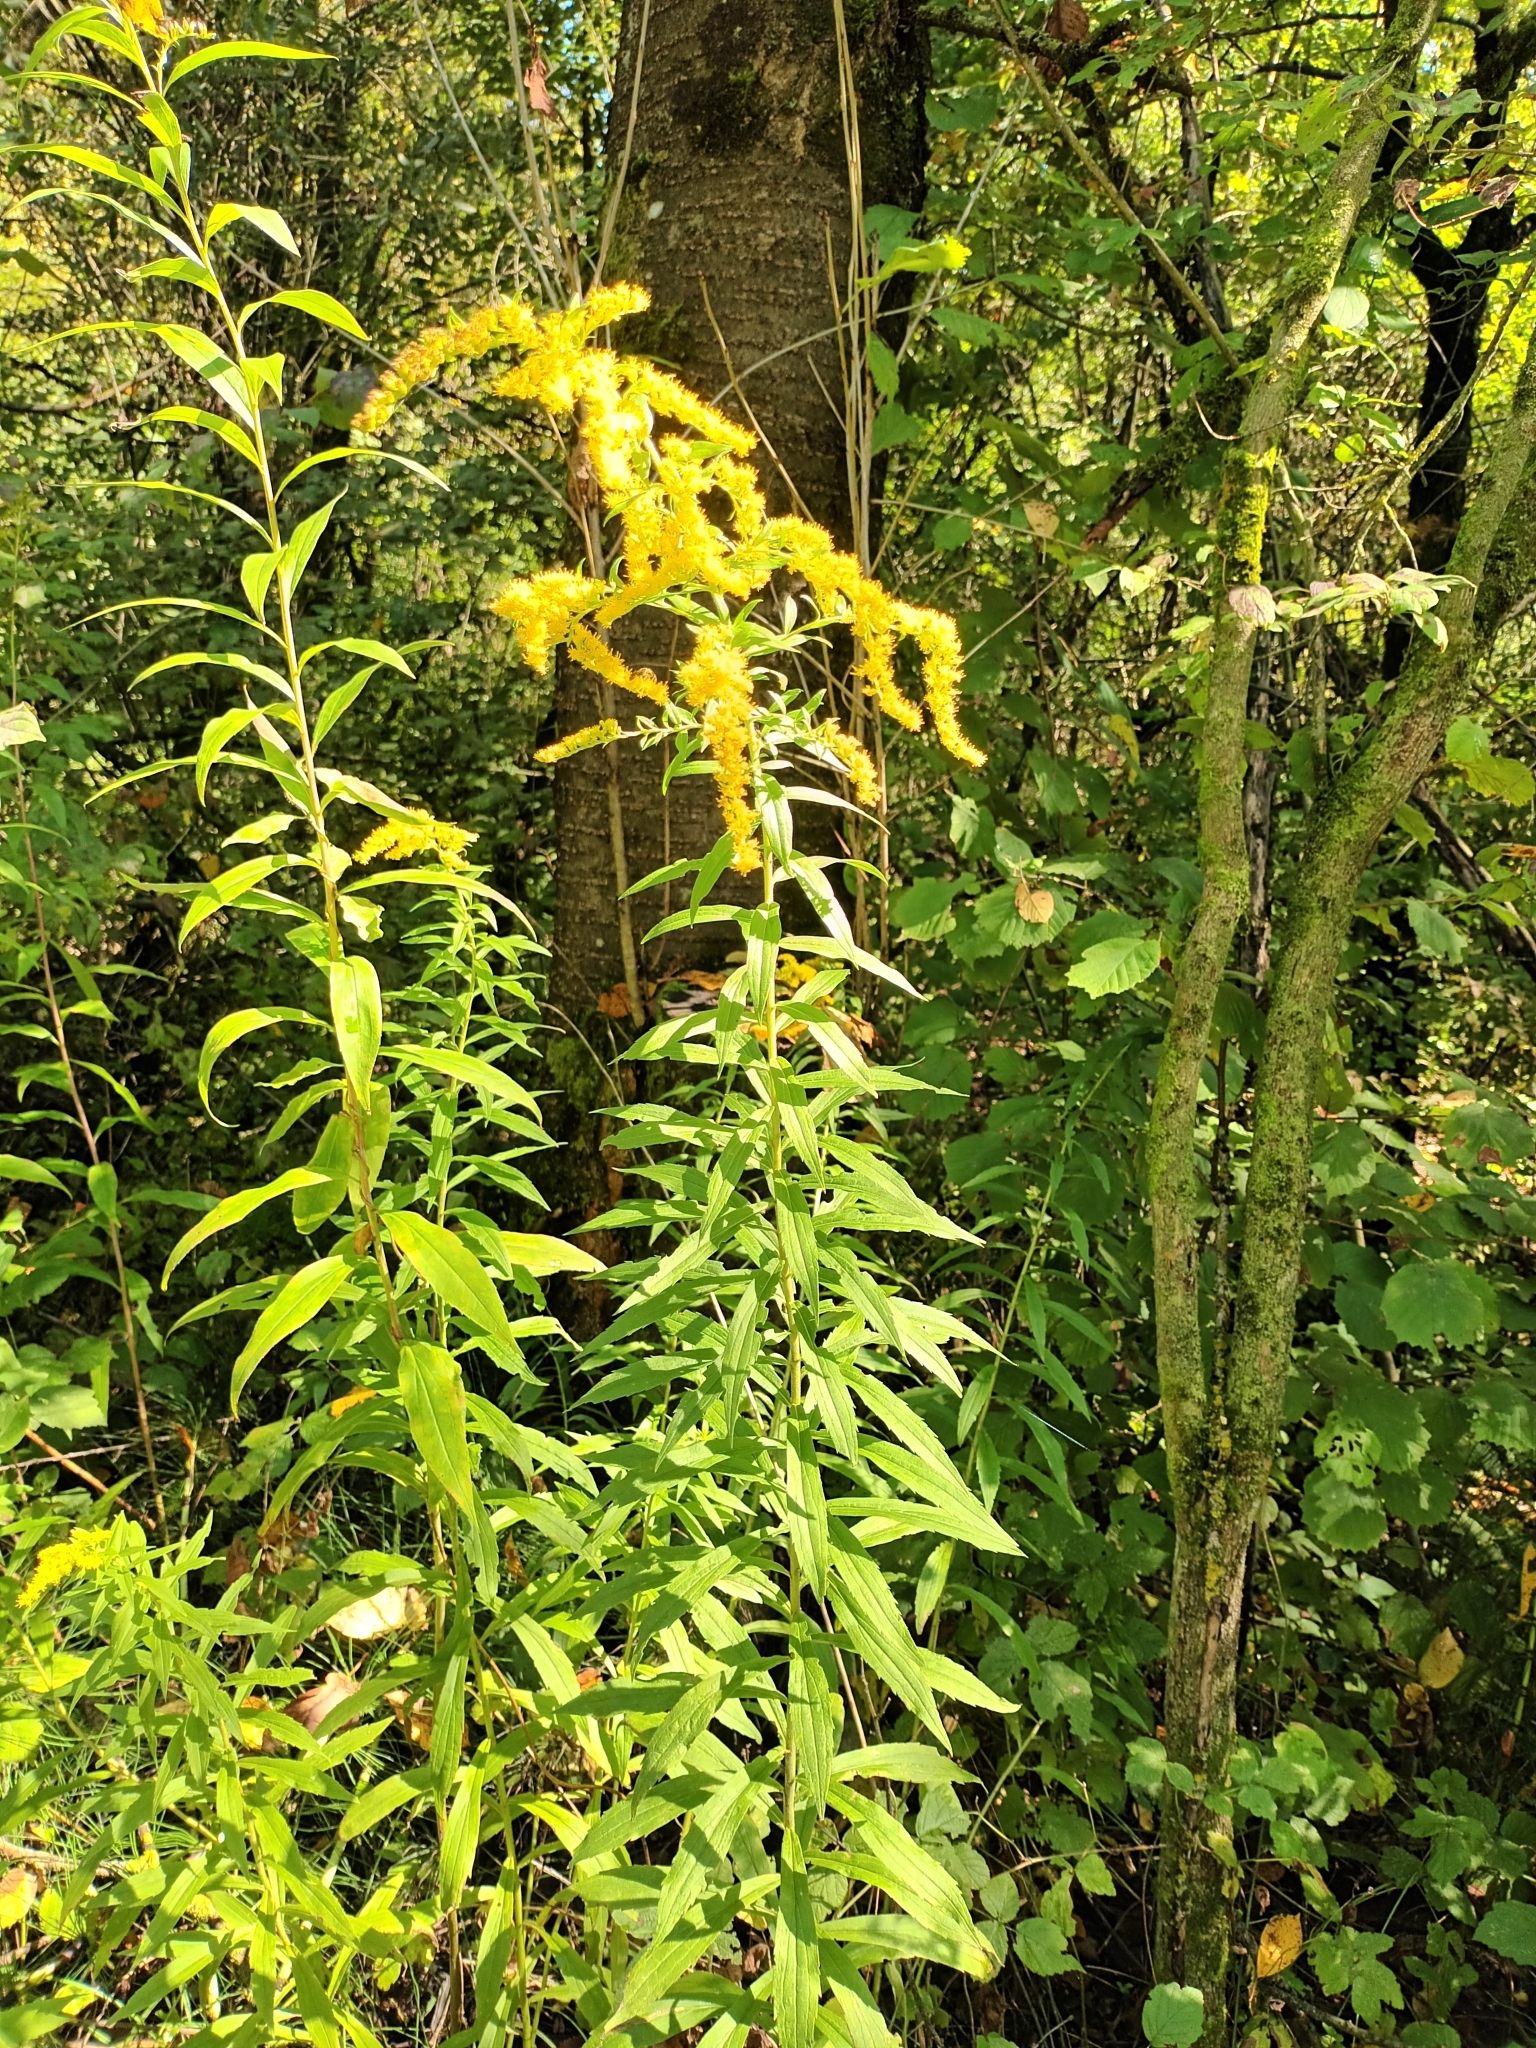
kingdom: Plantae
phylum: Tracheophyta
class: Magnoliopsida
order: Asterales
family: Asteraceae
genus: Solidago
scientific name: Solidago canadensis
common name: Canada goldenrod
